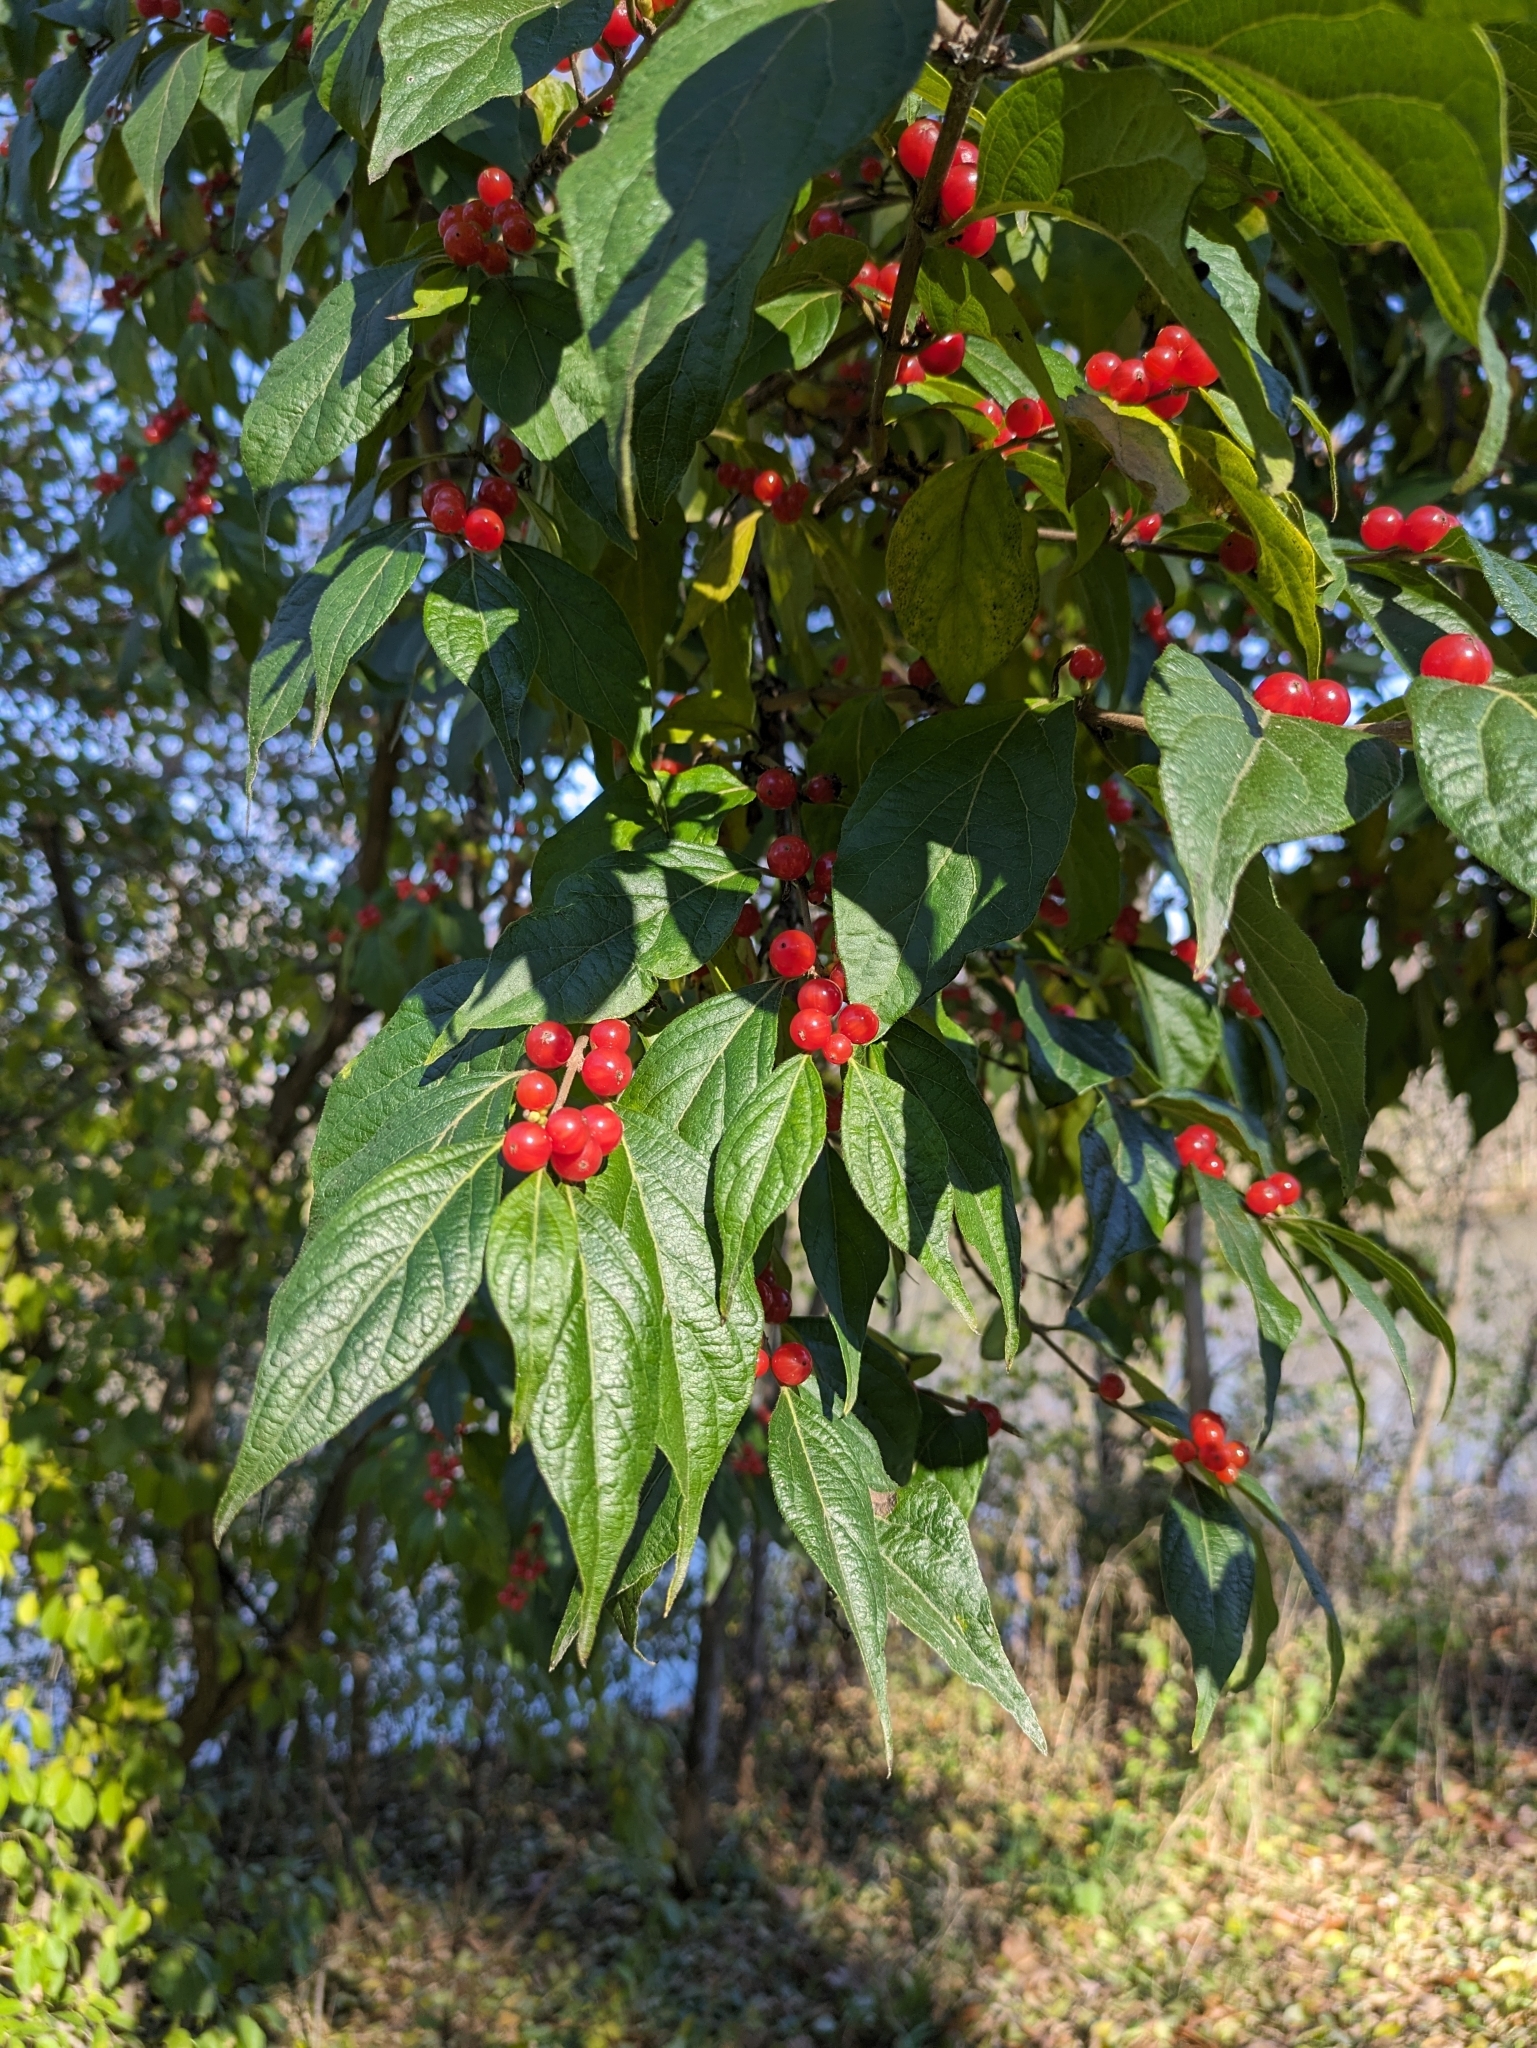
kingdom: Plantae
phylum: Tracheophyta
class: Magnoliopsida
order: Dipsacales
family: Caprifoliaceae
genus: Lonicera
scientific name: Lonicera maackii
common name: Amur honeysuckle
